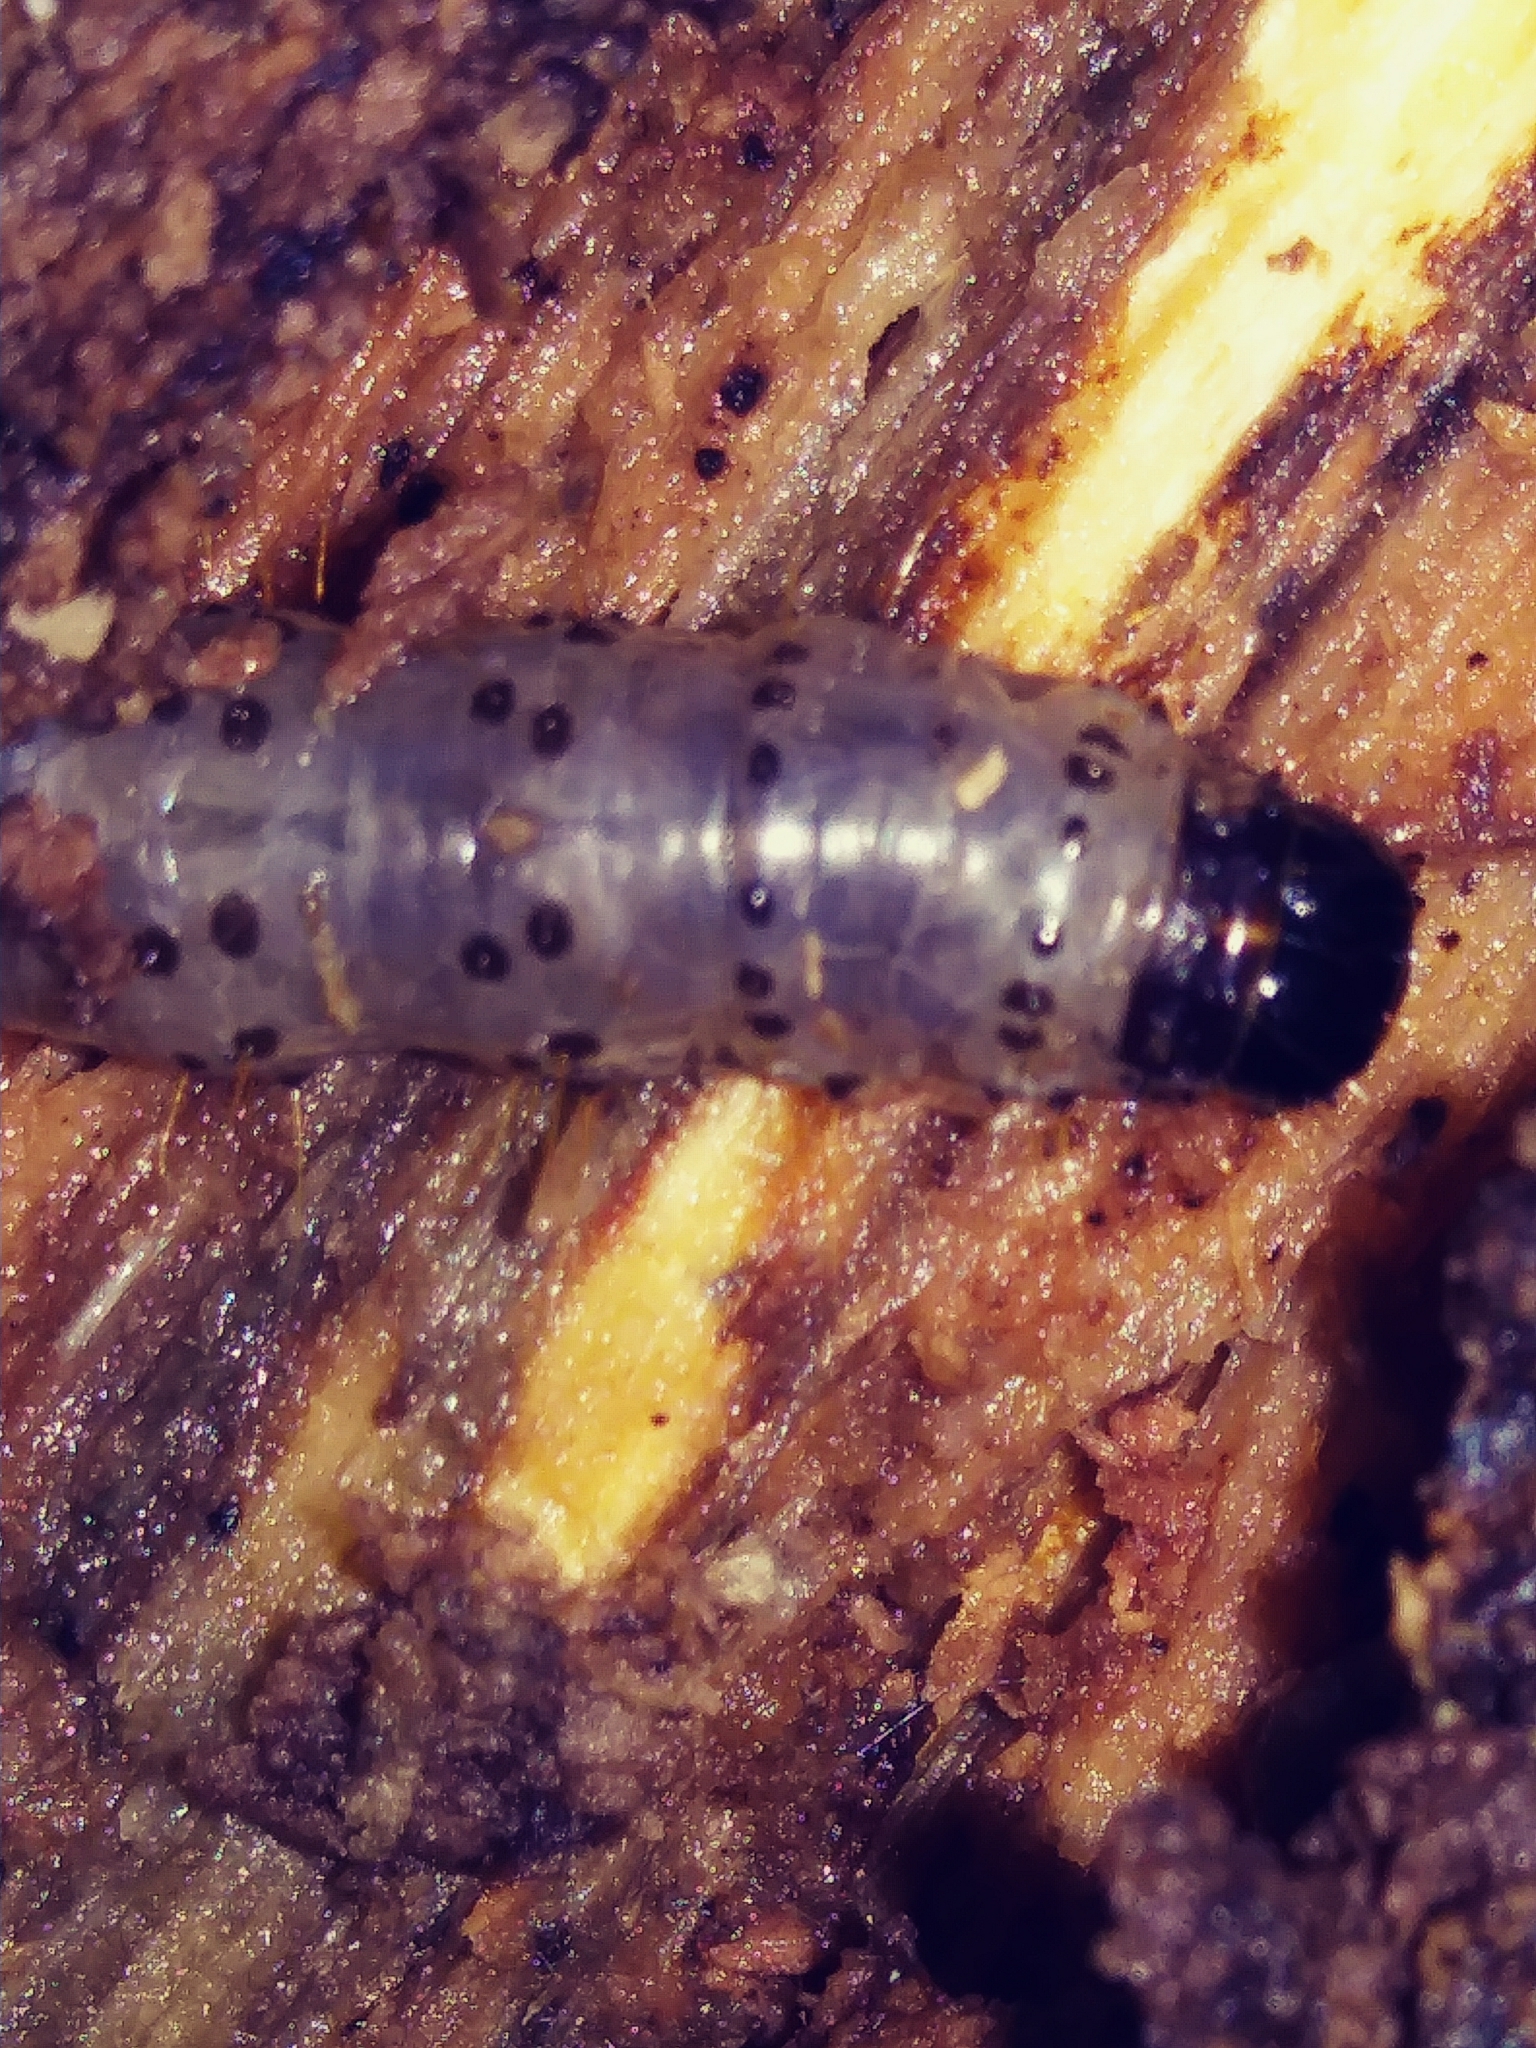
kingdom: Animalia
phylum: Arthropoda
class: Insecta
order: Lepidoptera
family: Erebidae
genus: Scolecocampa
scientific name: Scolecocampa liburna
